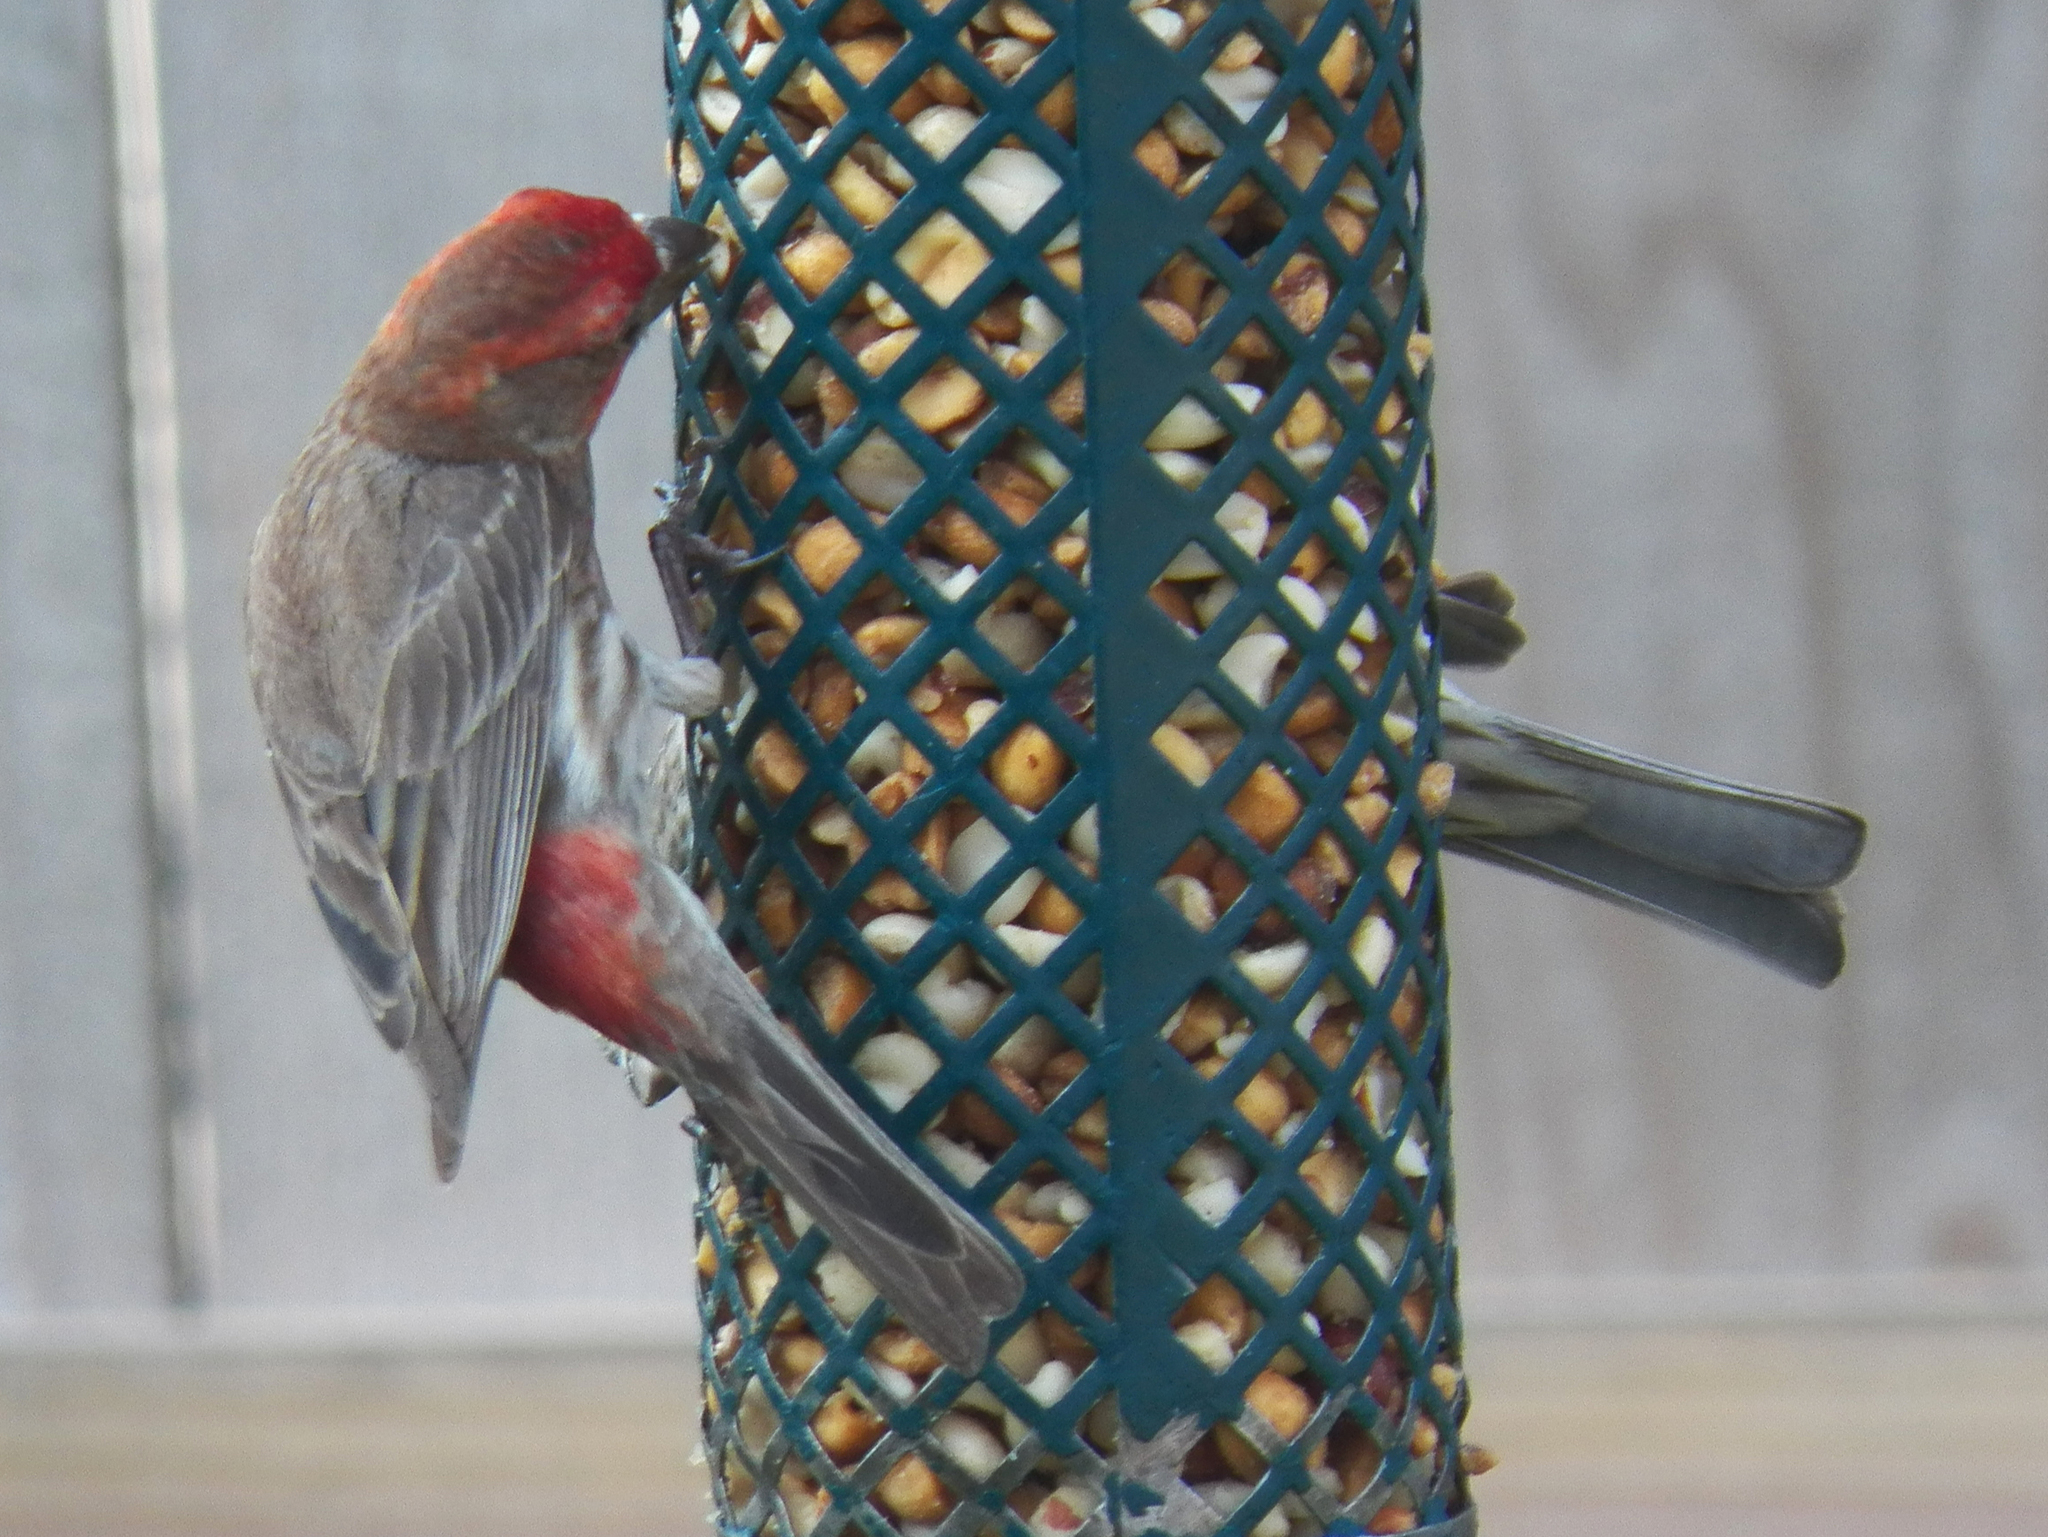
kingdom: Animalia
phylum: Chordata
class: Aves
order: Passeriformes
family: Fringillidae
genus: Haemorhous
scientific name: Haemorhous mexicanus
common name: House finch
